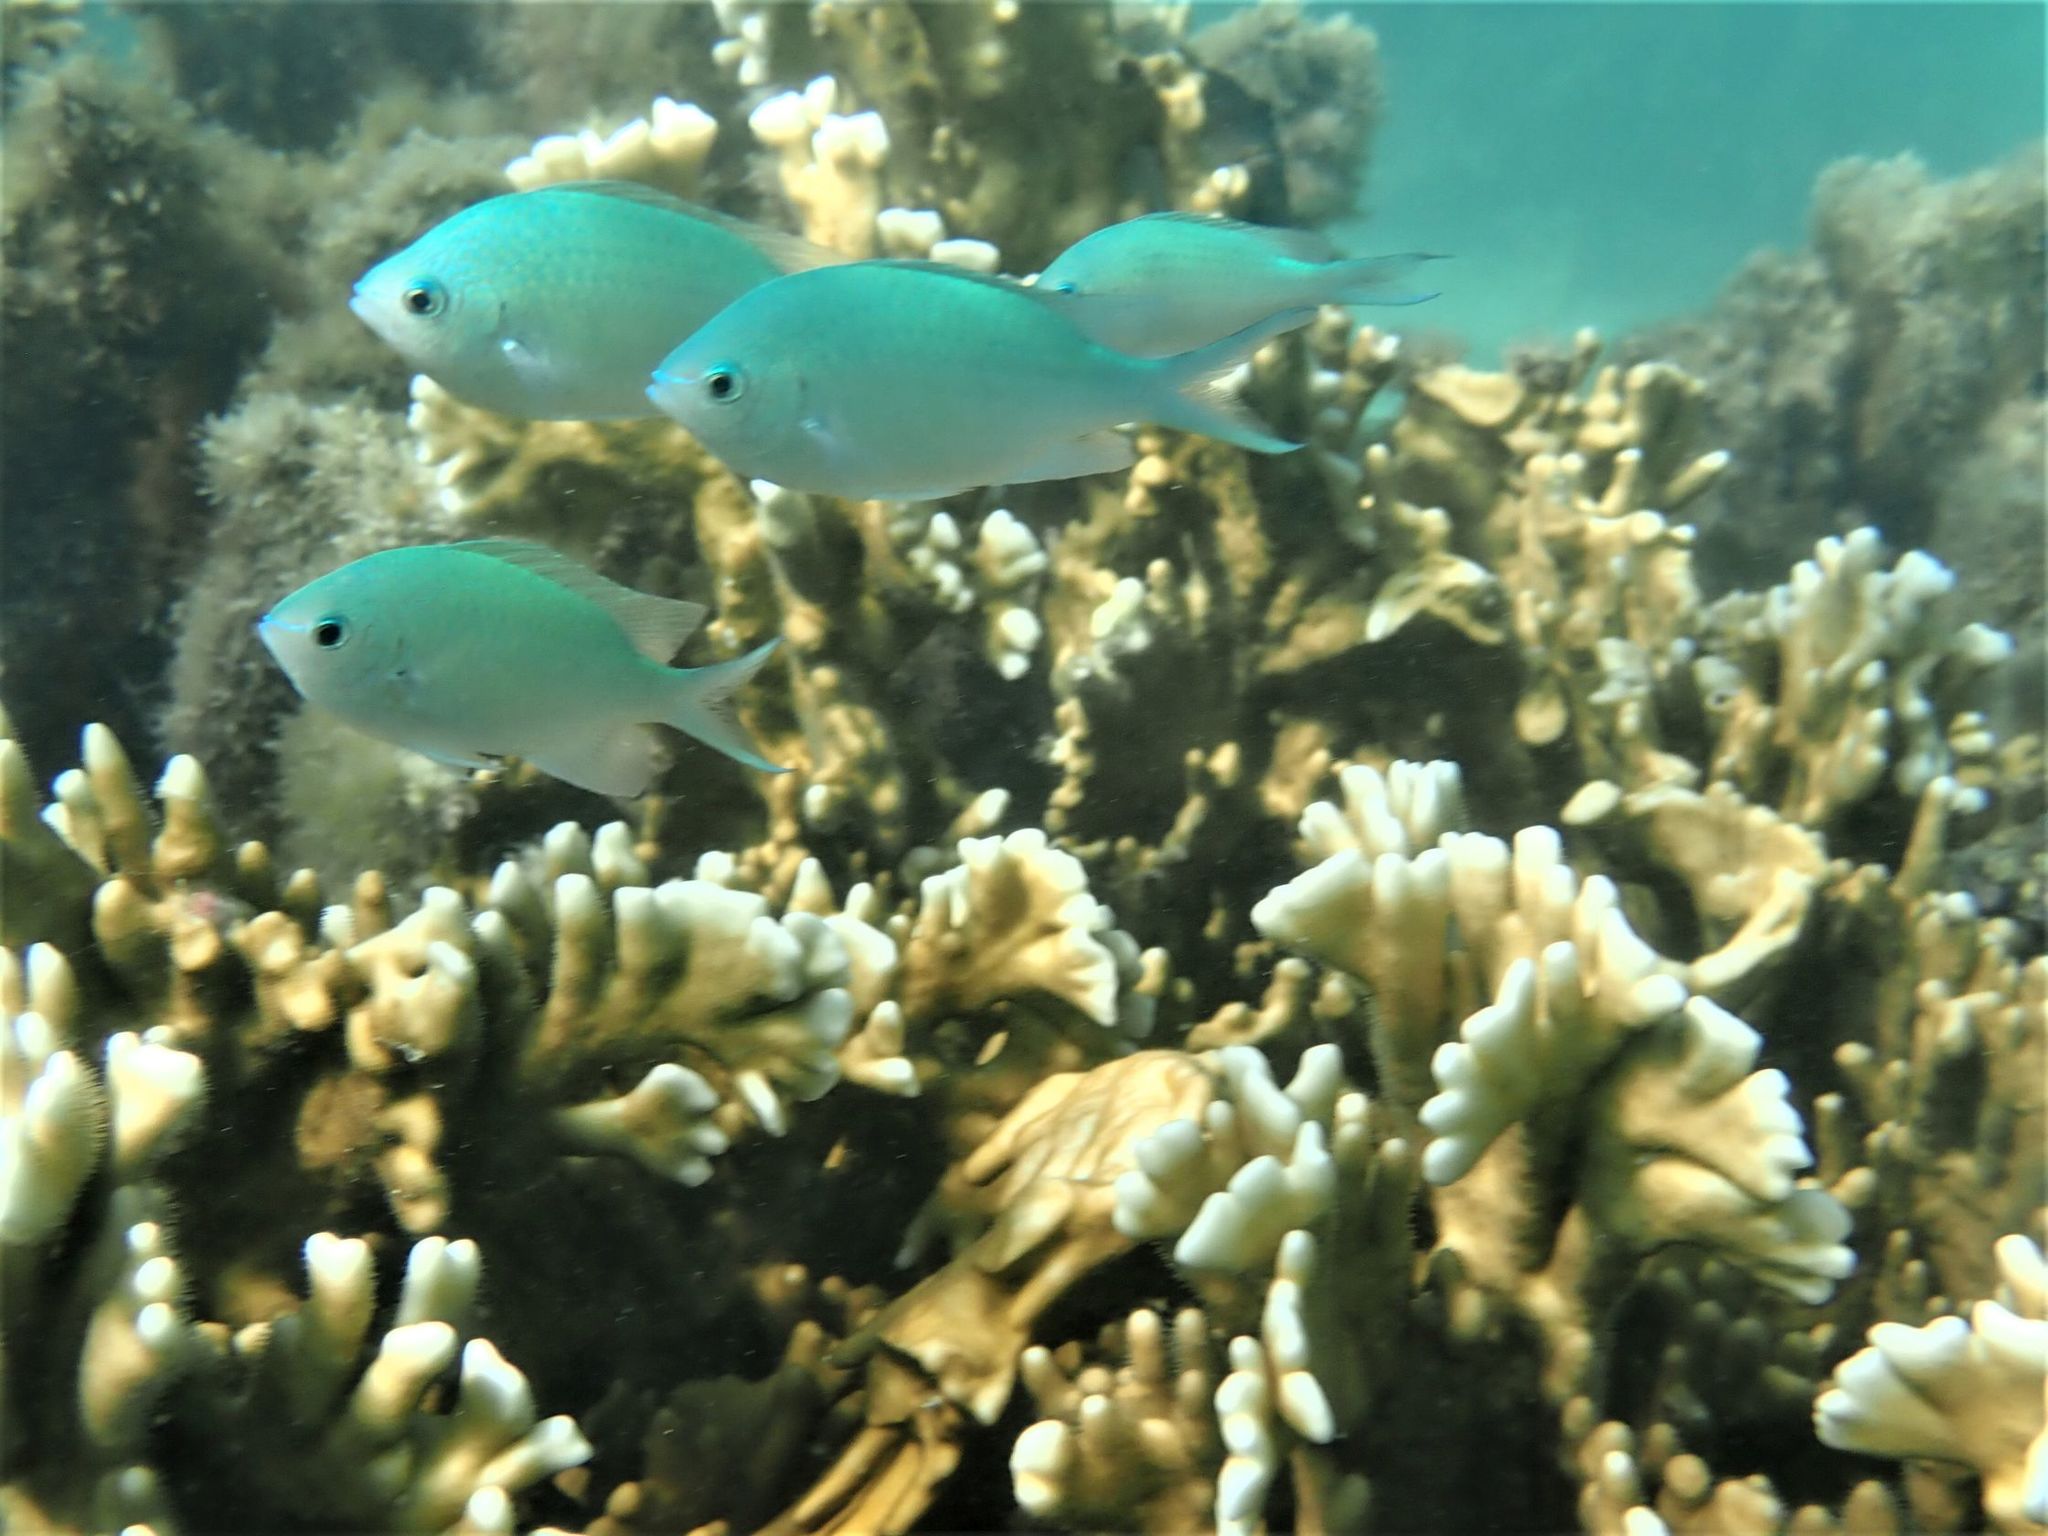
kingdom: Animalia
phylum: Chordata
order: Perciformes
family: Pomacentridae
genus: Chromis
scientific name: Chromis viridis
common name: Blue-green chromis
